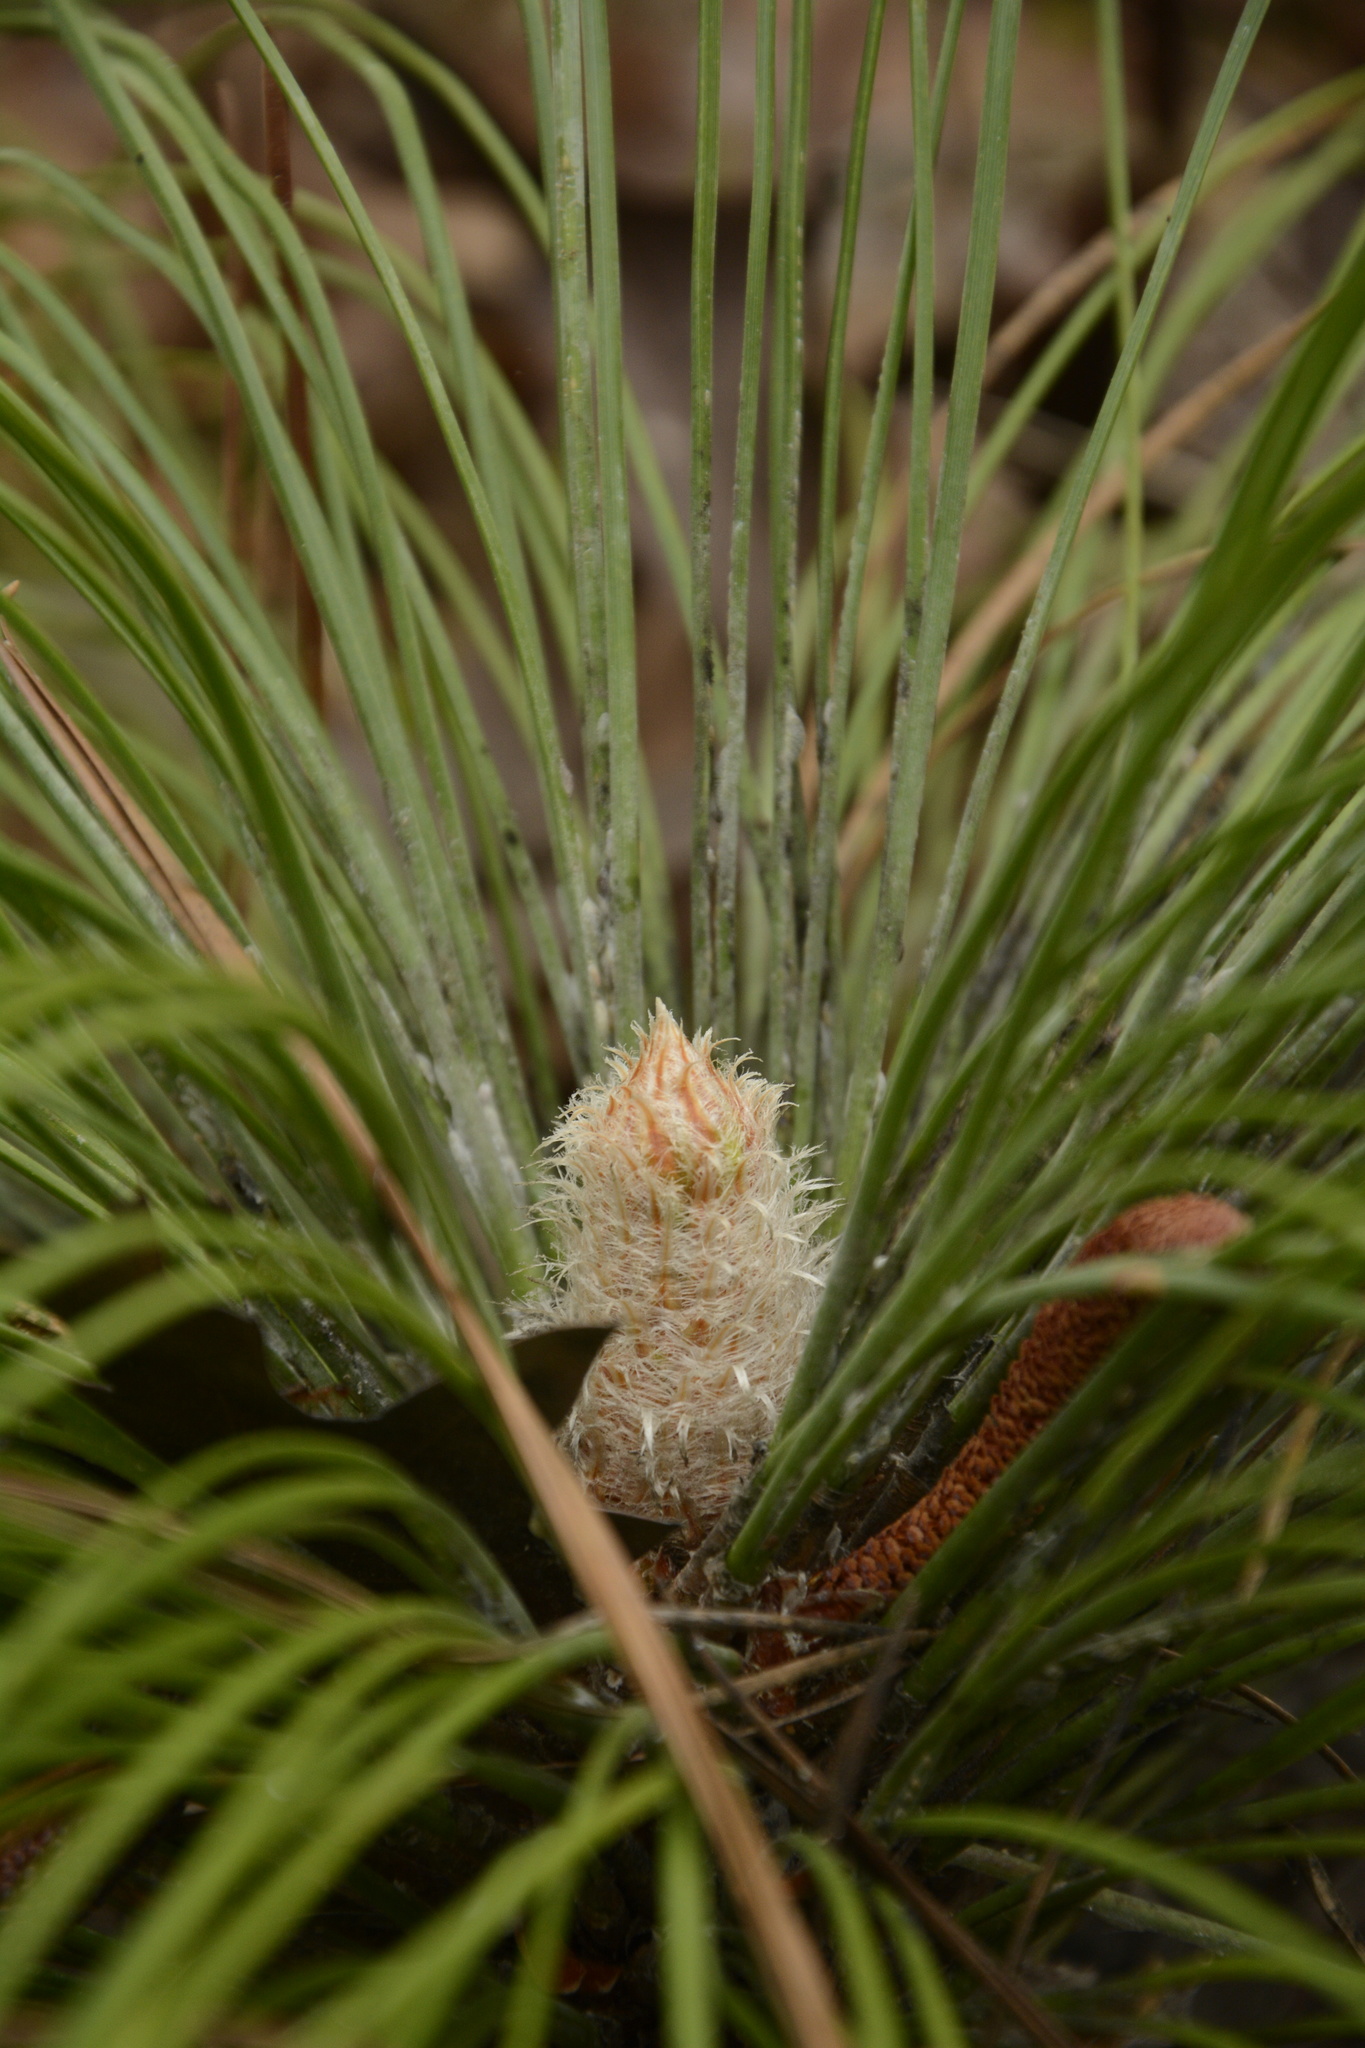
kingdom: Plantae
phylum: Tracheophyta
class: Pinopsida
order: Pinales
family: Pinaceae
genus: Pinus
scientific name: Pinus palustris
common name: Longleaf pine
